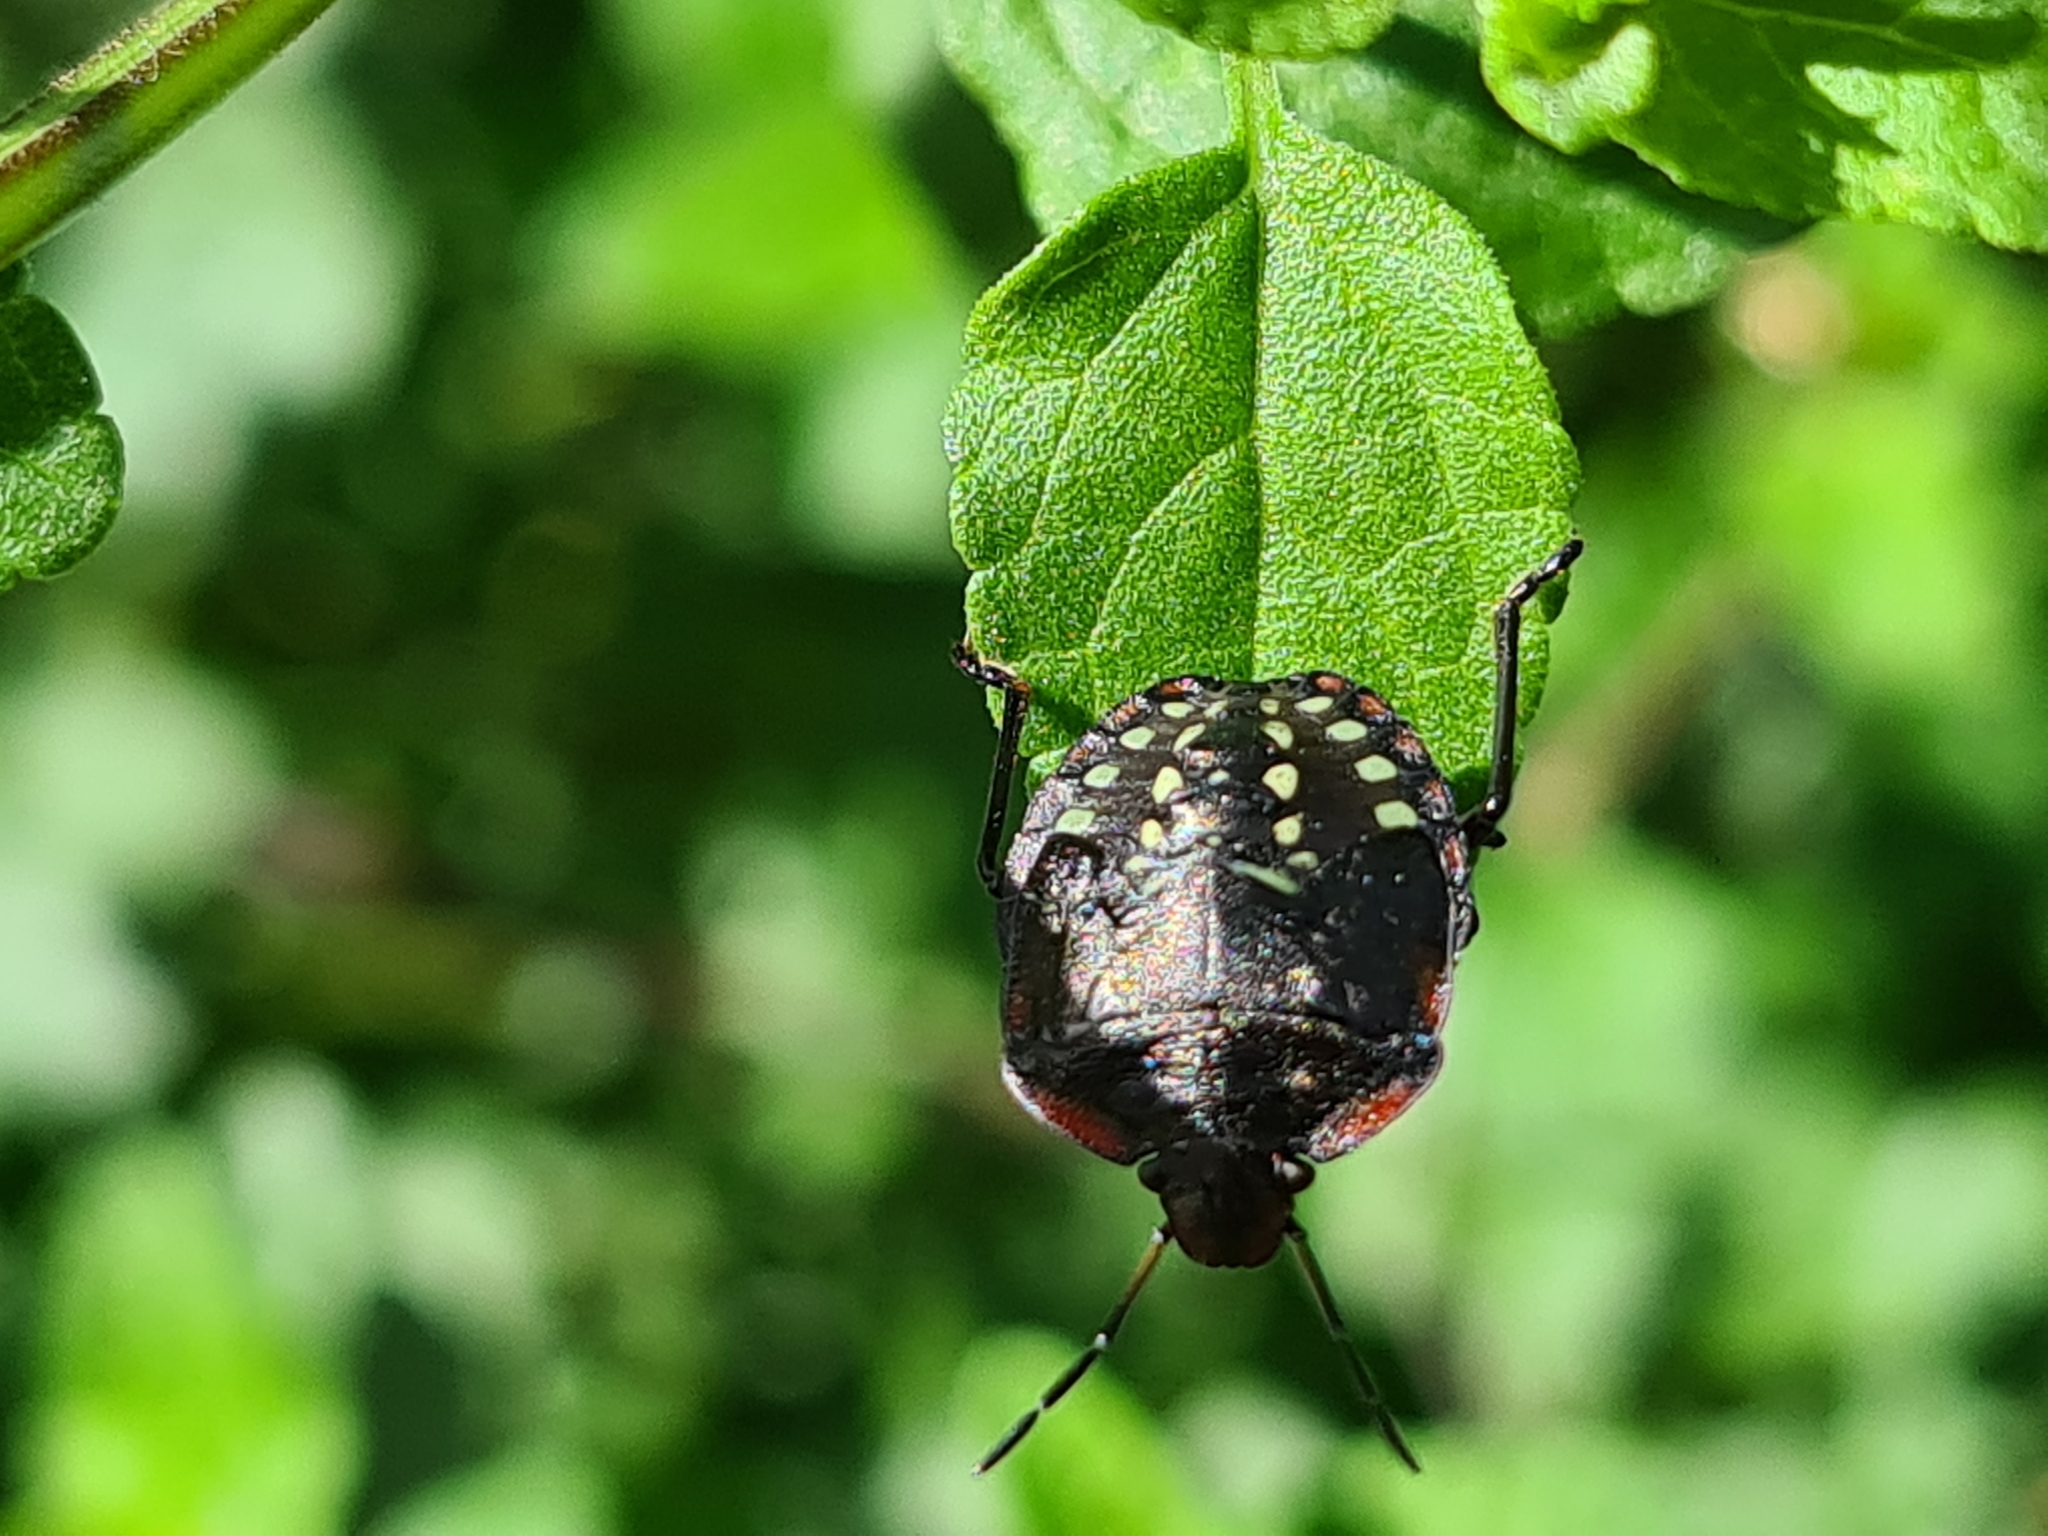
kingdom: Animalia
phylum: Arthropoda
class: Insecta
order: Hemiptera
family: Pentatomidae
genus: Nezara
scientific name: Nezara viridula
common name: Southern green stink bug
